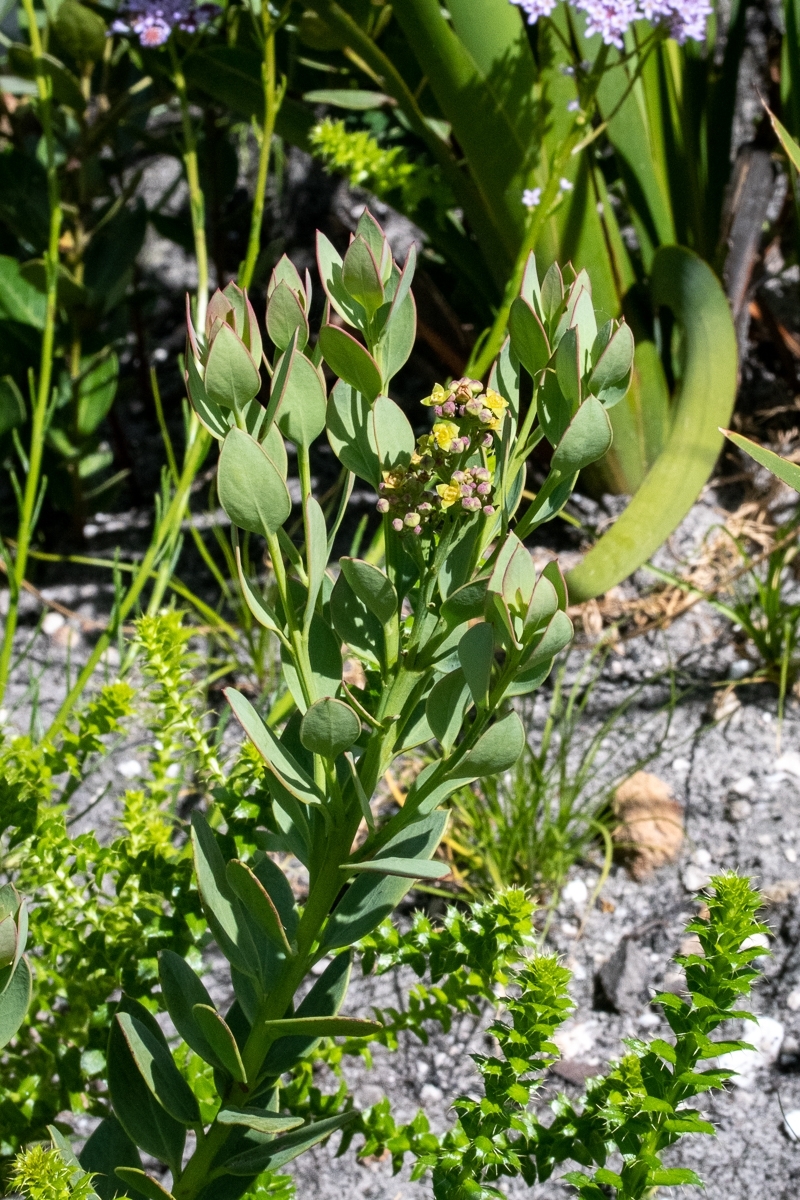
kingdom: Plantae
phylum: Tracheophyta
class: Magnoliopsida
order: Santalales
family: Santalaceae
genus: Osyris
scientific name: Osyris compressa
